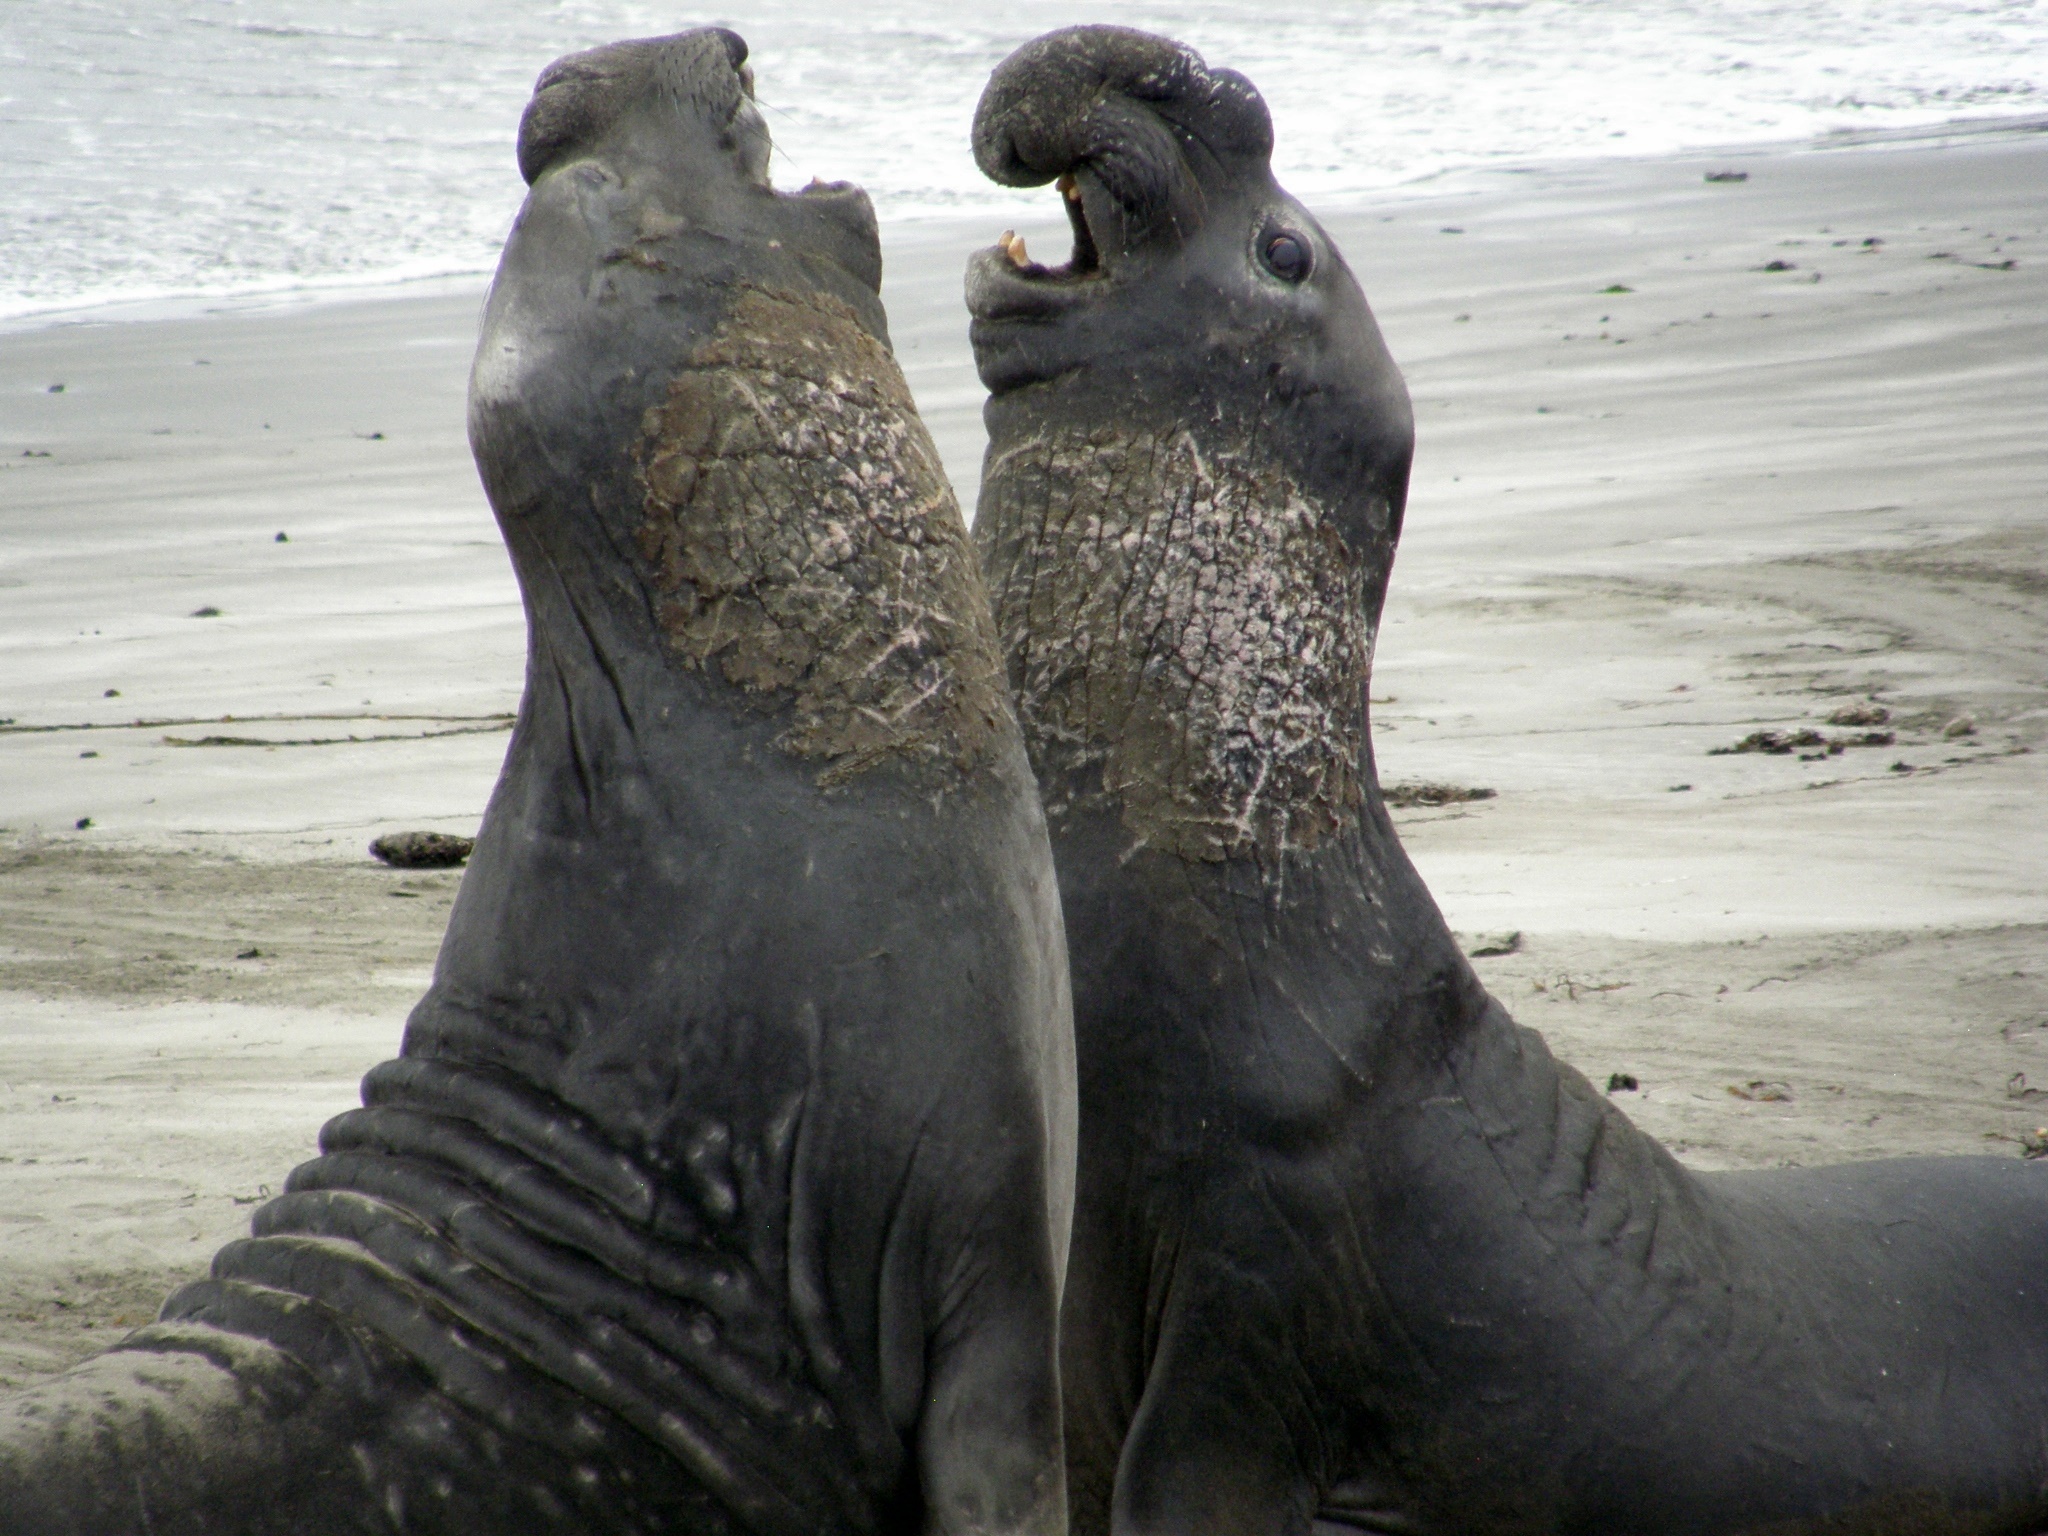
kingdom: Animalia
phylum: Chordata
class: Mammalia
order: Carnivora
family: Phocidae
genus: Mirounga
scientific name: Mirounga angustirostris
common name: Northern elephant seal
